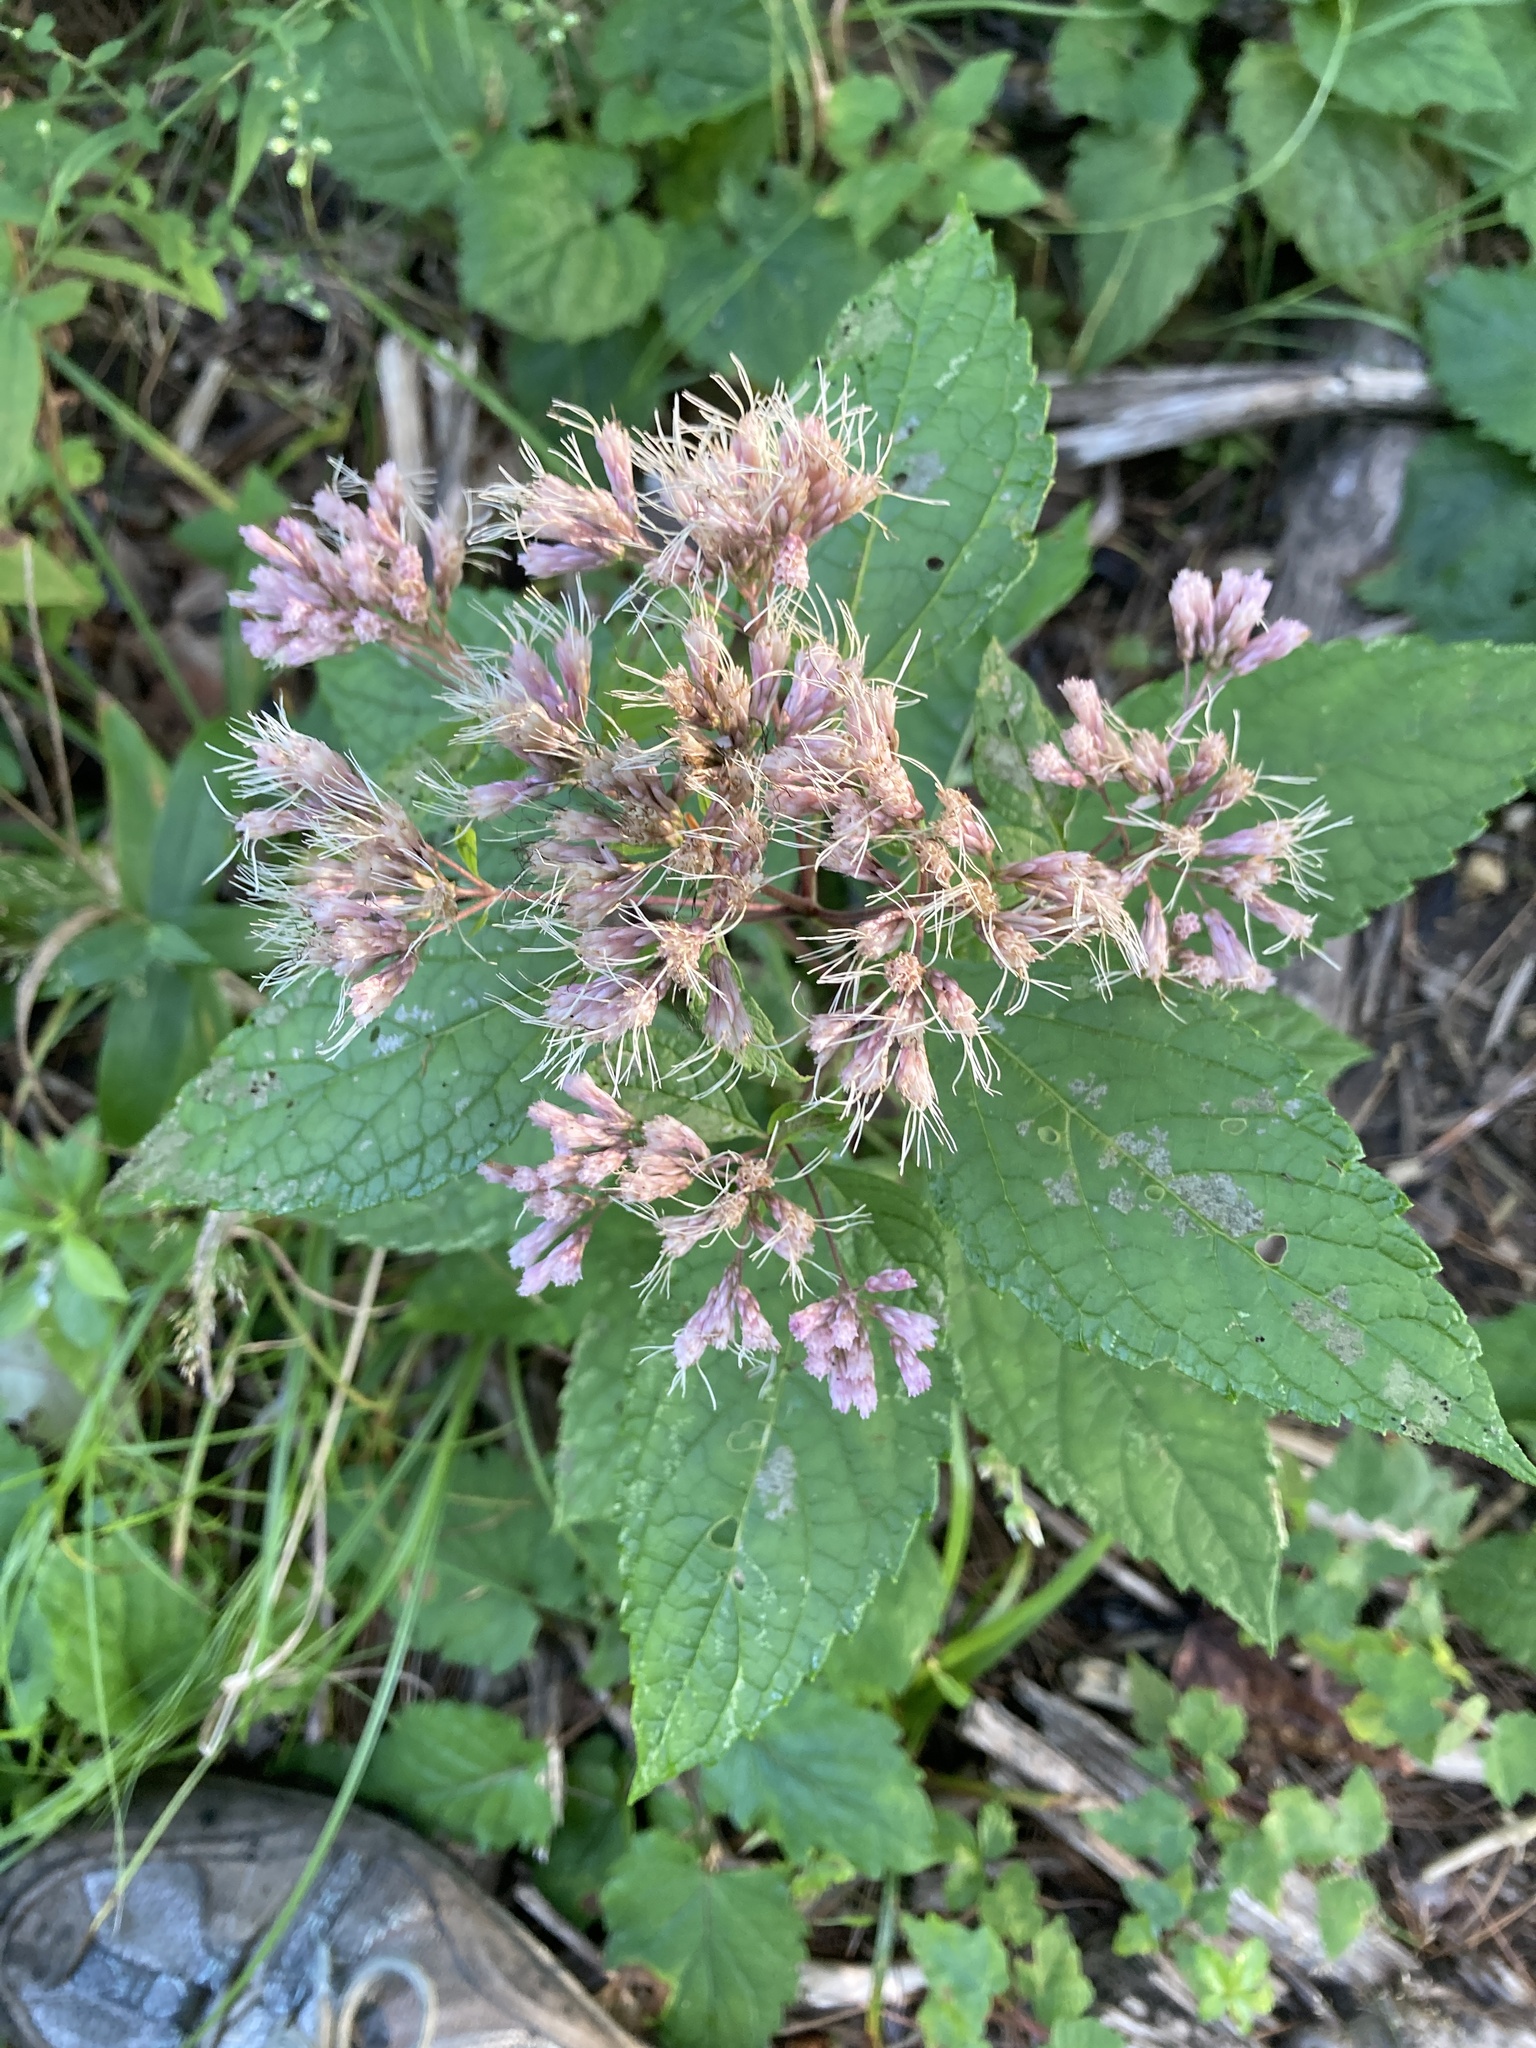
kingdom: Plantae
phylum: Tracheophyta
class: Magnoliopsida
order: Asterales
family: Asteraceae
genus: Eutrochium
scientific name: Eutrochium dubium
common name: Coastal plain joe pye weed
